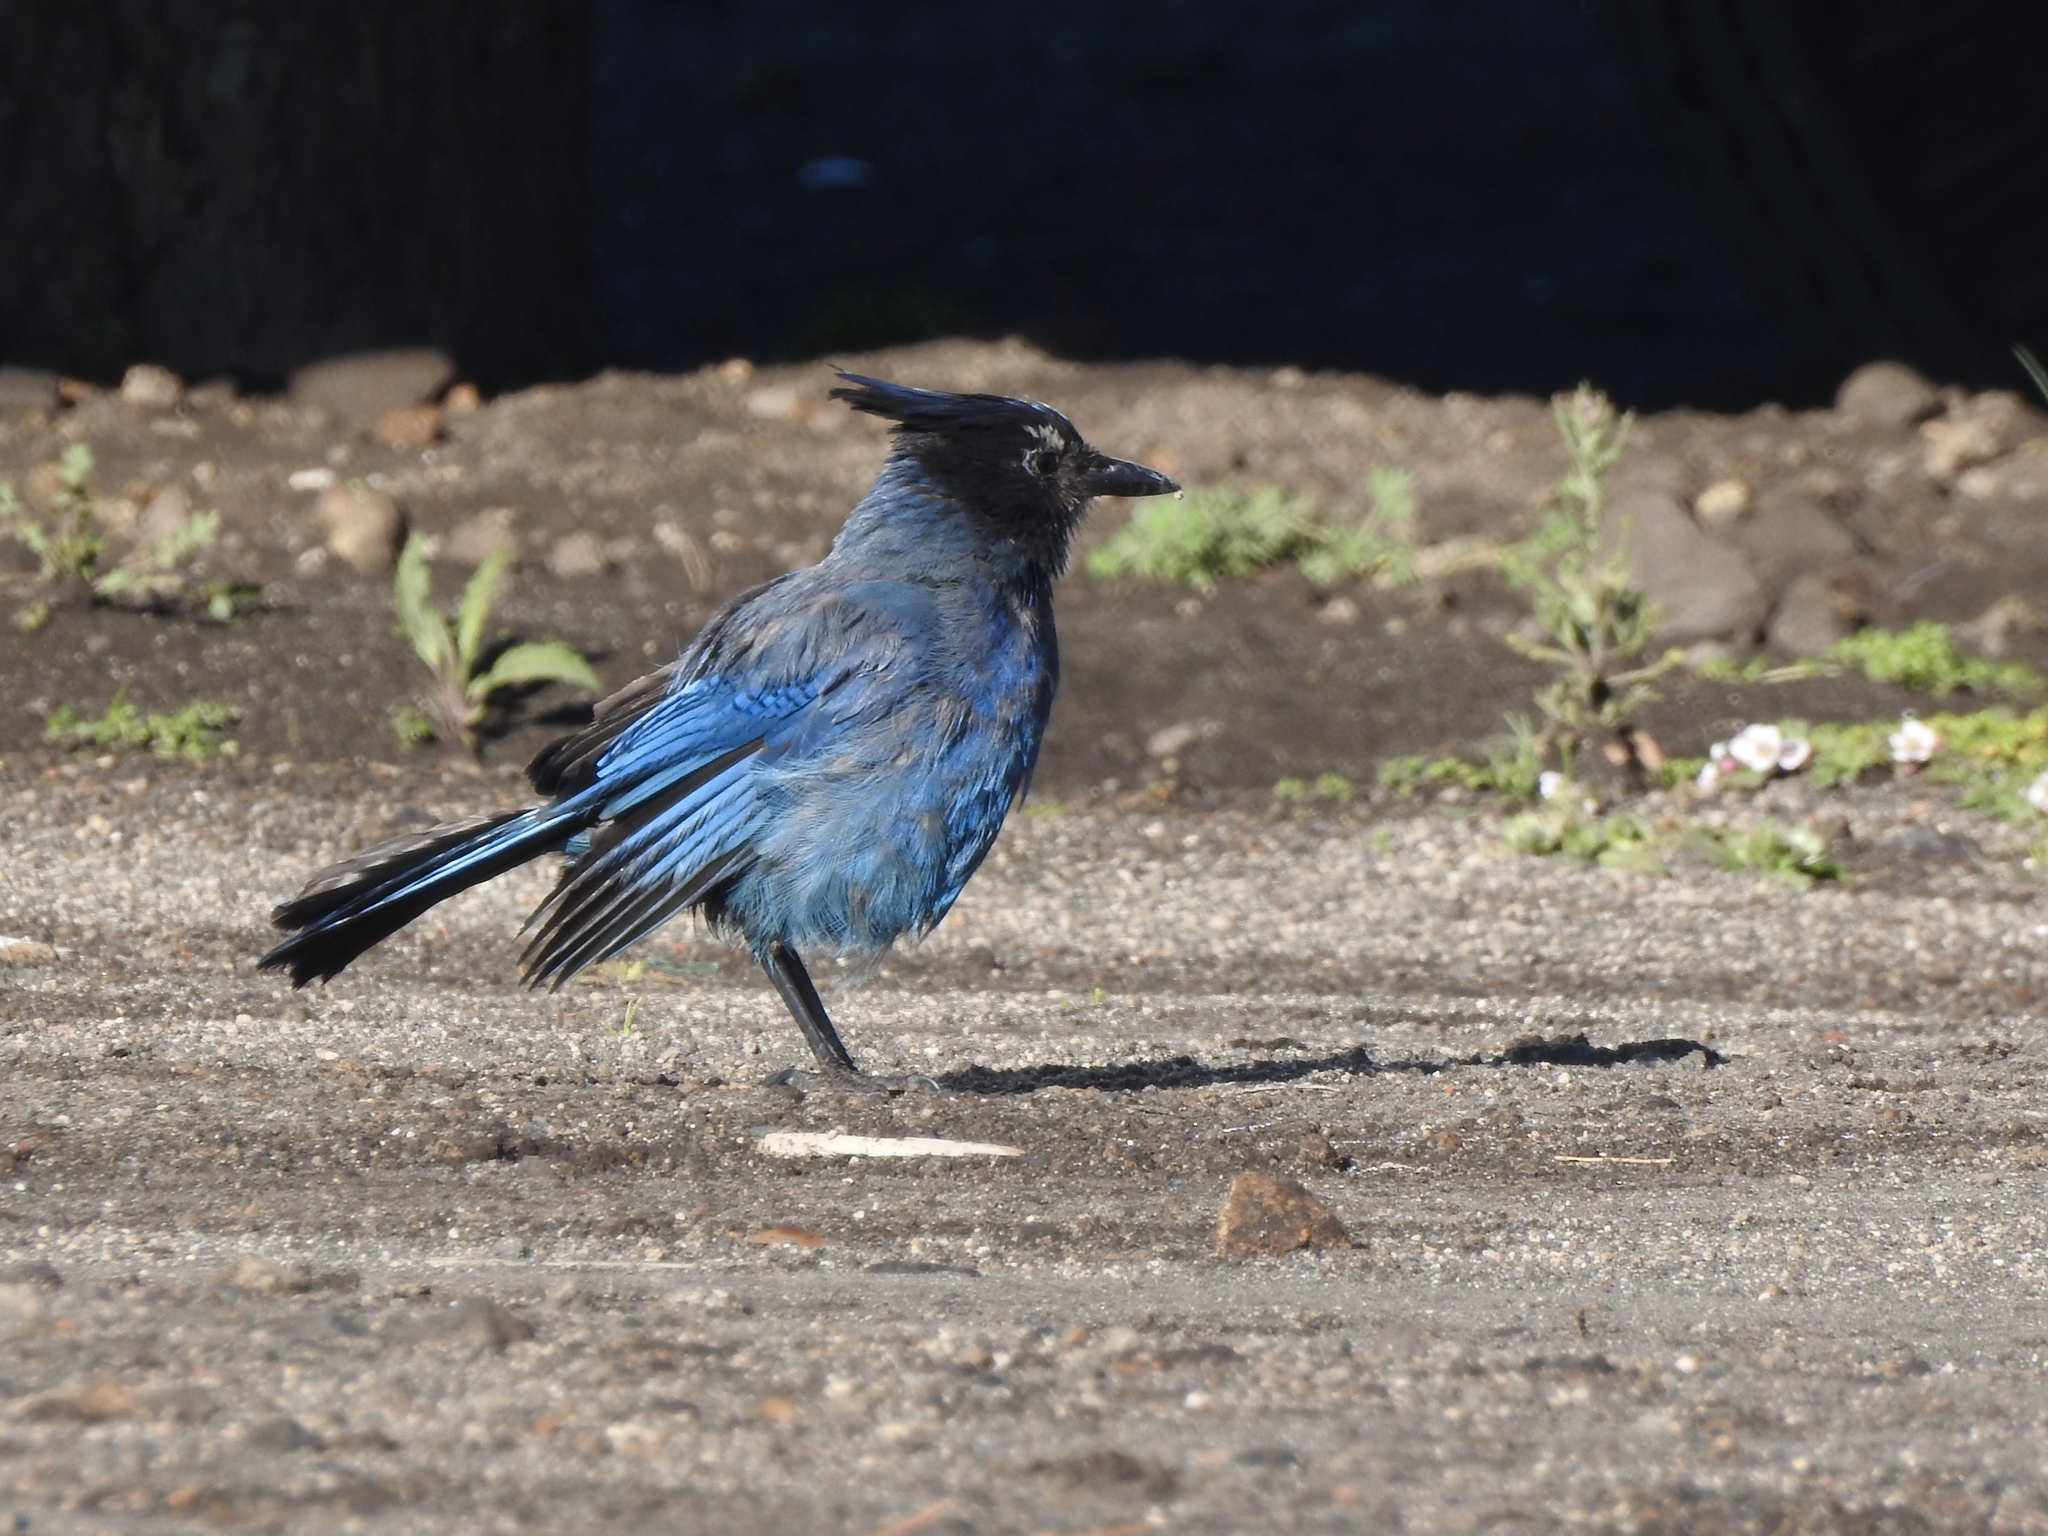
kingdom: Animalia
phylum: Chordata
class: Aves
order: Passeriformes
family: Corvidae
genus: Cyanocitta
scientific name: Cyanocitta stelleri
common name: Steller's jay
